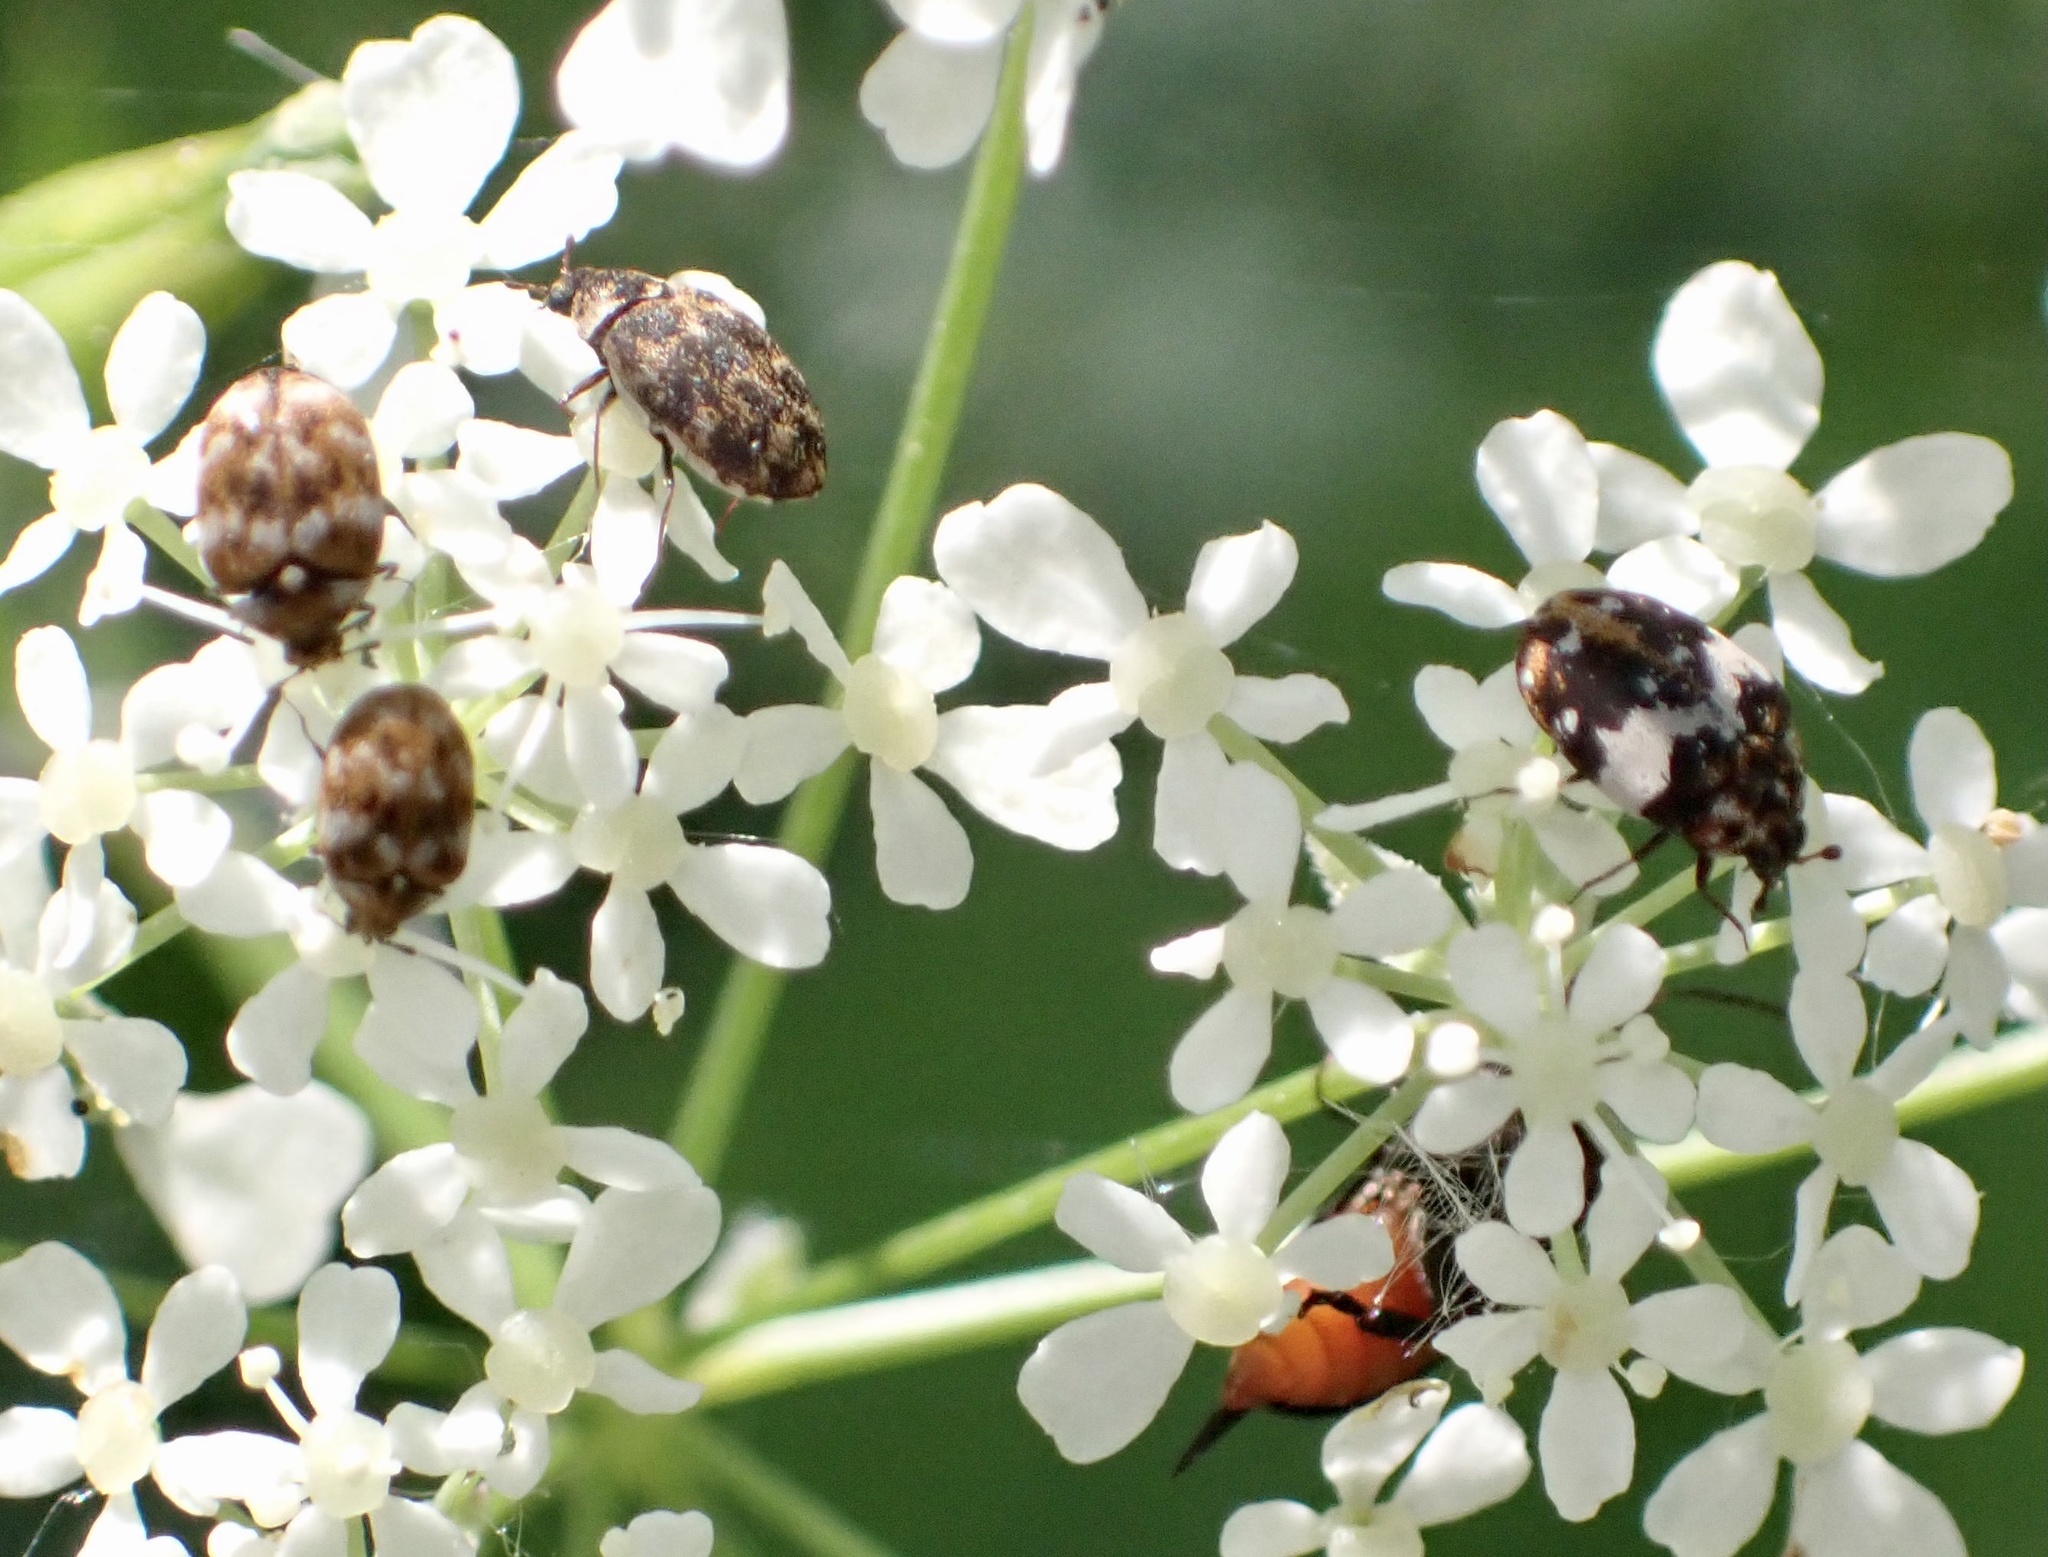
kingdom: Animalia
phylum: Arthropoda
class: Insecta
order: Coleoptera
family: Dermestidae
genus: Anthrenus
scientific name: Anthrenus pimpinellae
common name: Dermestid beetle
